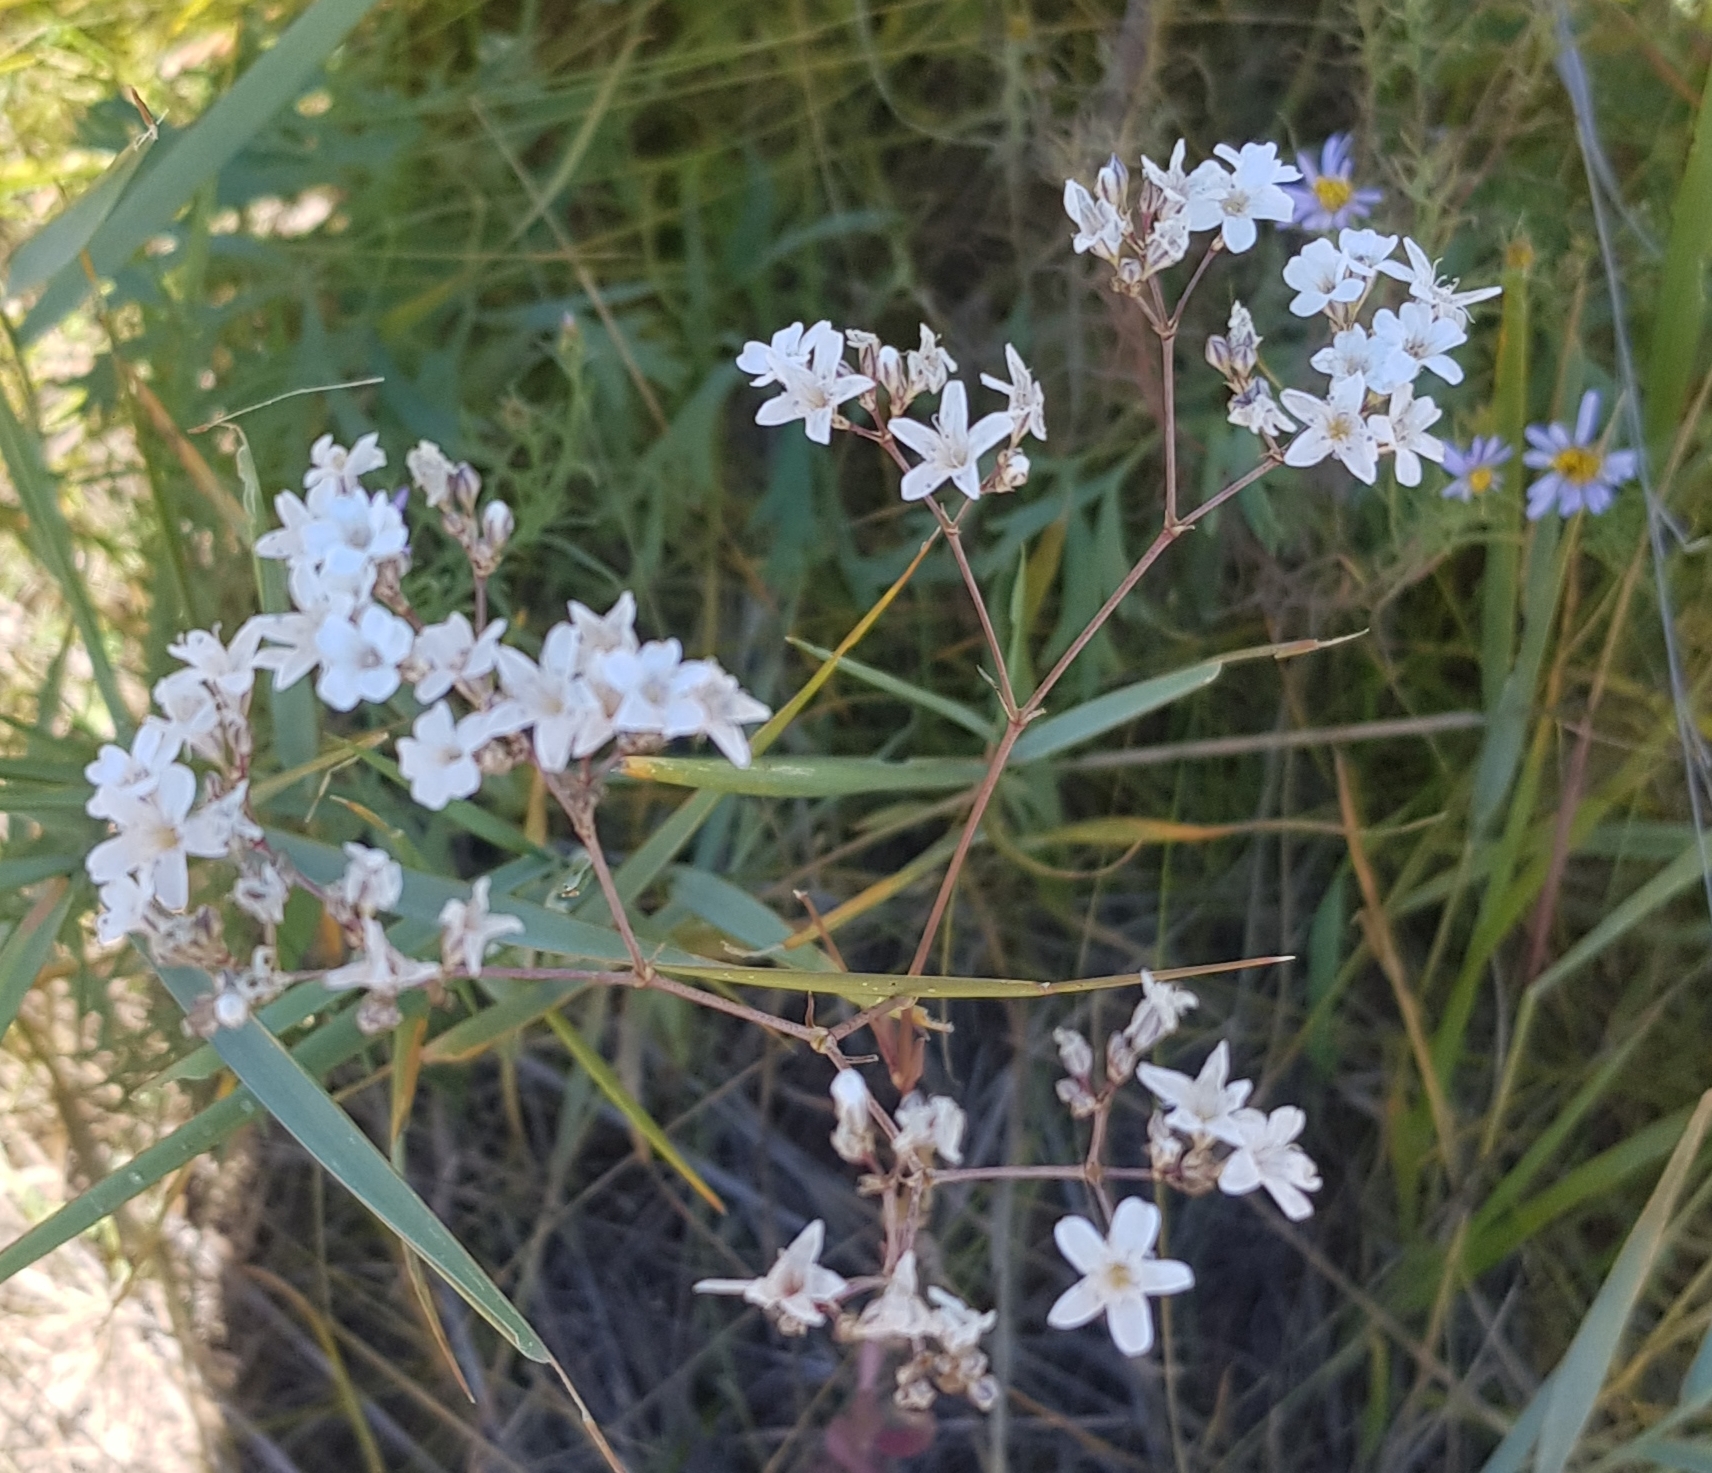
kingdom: Plantae
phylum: Tracheophyta
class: Magnoliopsida
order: Caryophyllales
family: Caryophyllaceae
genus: Gypsophila
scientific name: Gypsophila paniculata
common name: Baby's-breath
